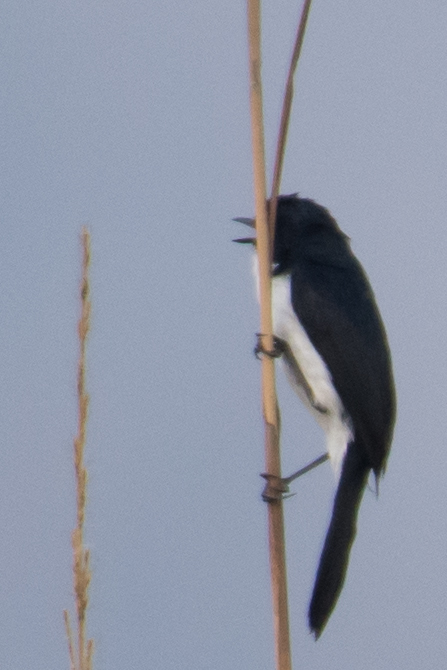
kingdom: Animalia
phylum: Chordata
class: Aves
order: Passeriformes
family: Muscicapidae
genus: Saxicola
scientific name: Saxicola jerdoni
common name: Jerdon's bush chat
